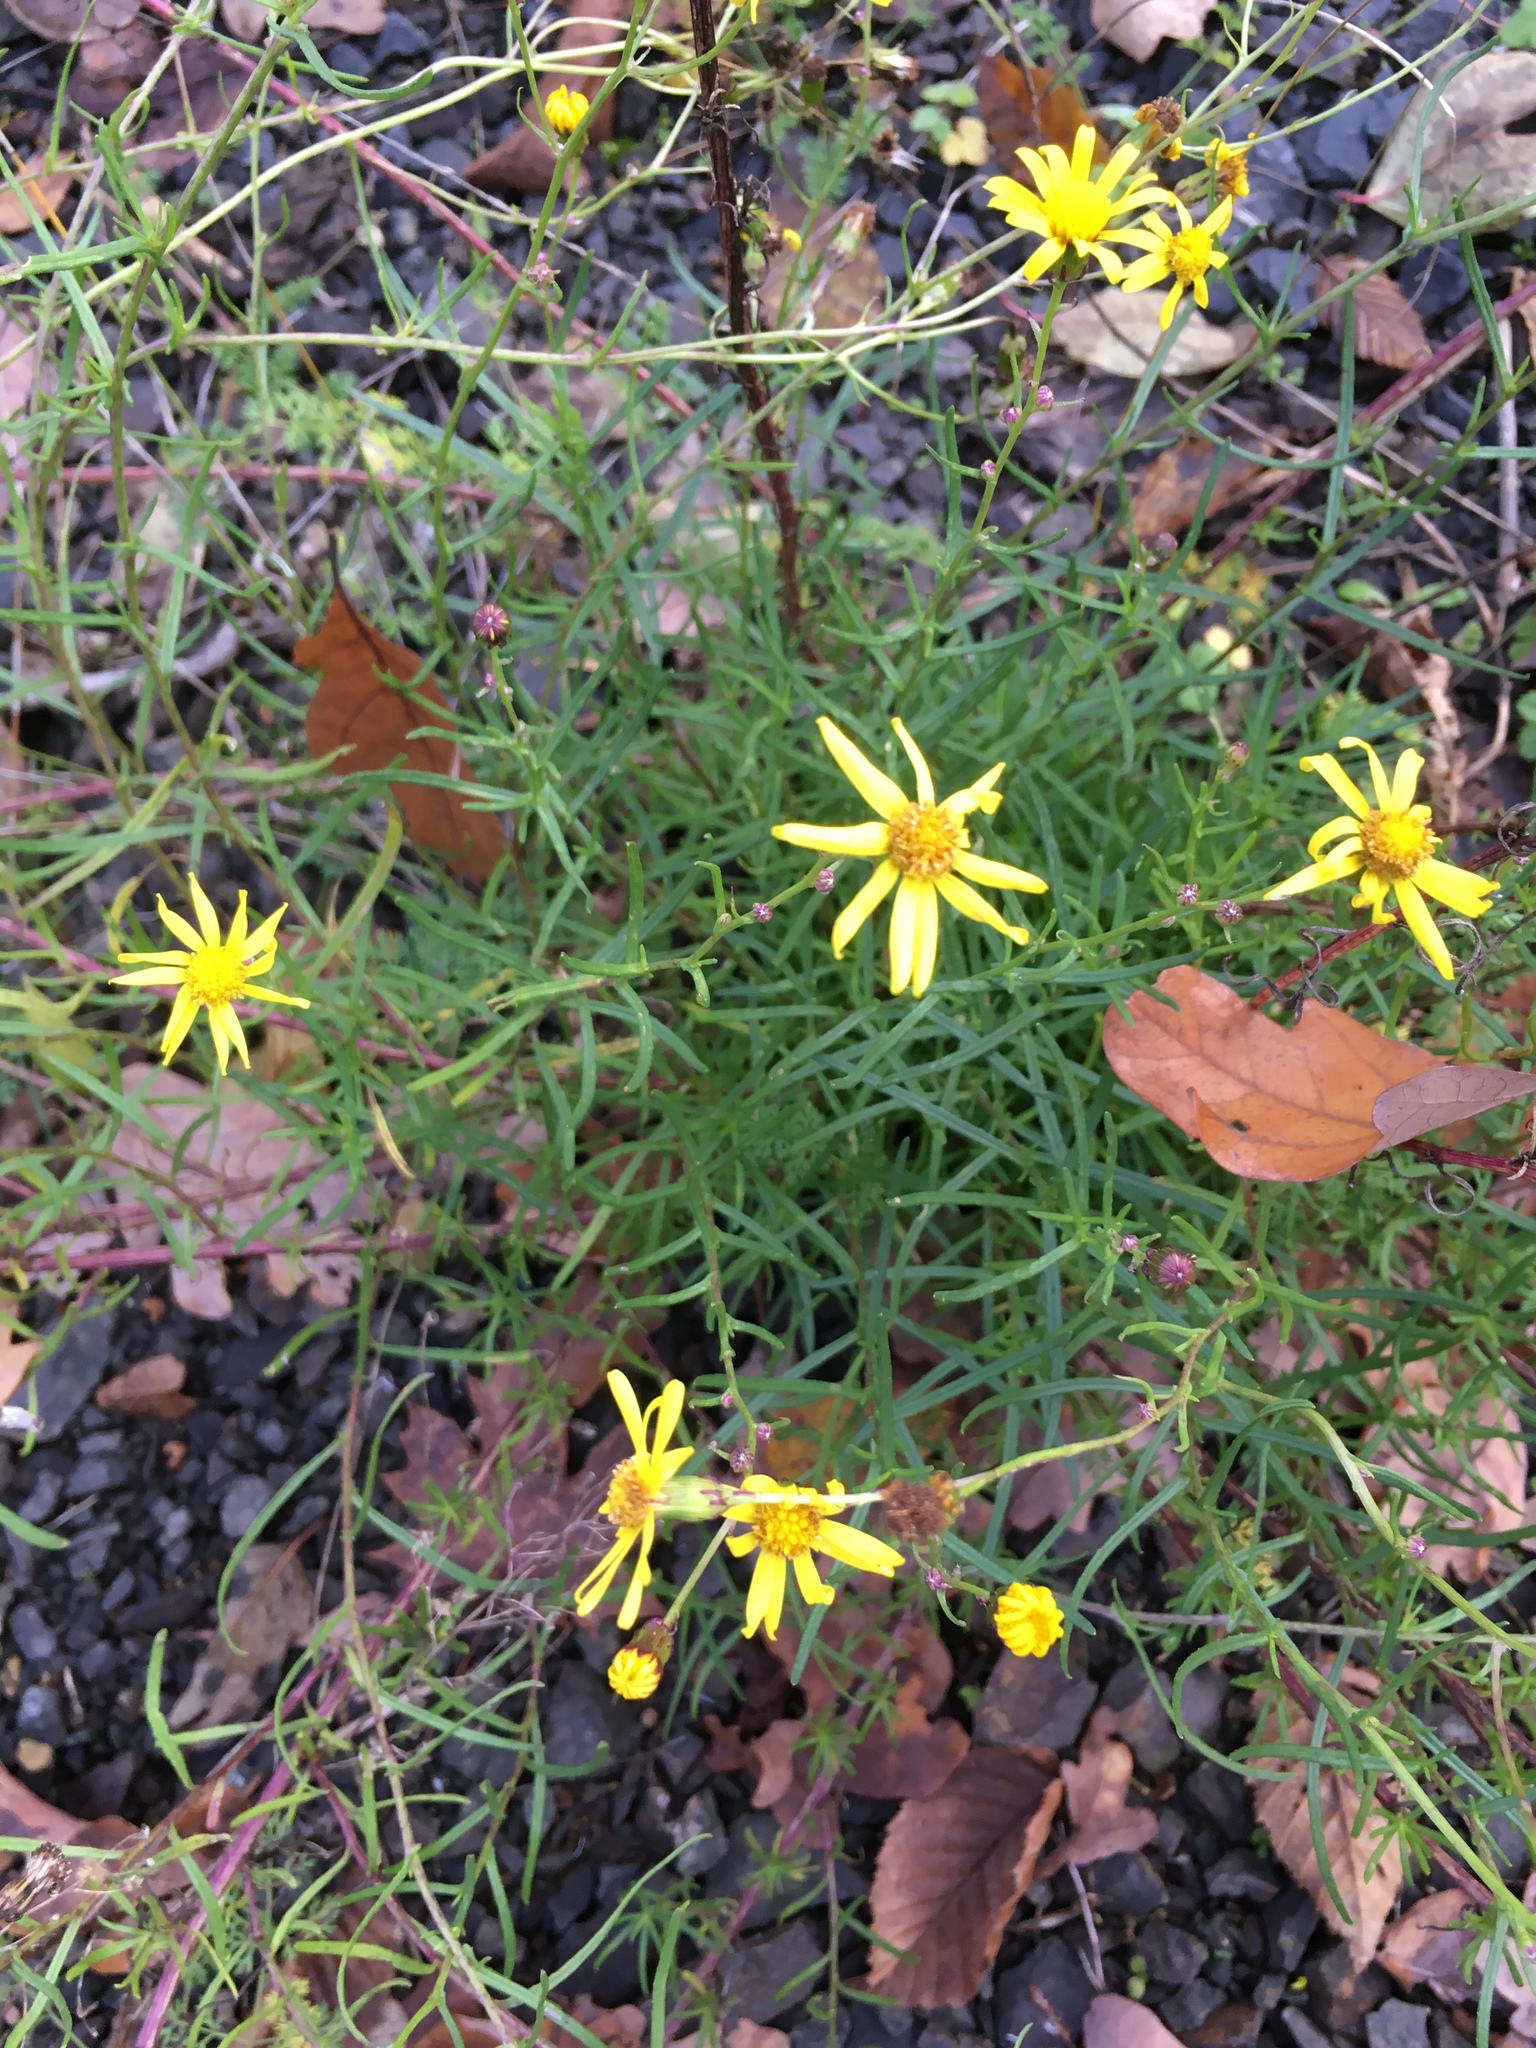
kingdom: Plantae
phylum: Tracheophyta
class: Magnoliopsida
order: Asterales
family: Asteraceae
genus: Senecio
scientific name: Senecio inaequidens
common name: Narrow-leaved ragwort
